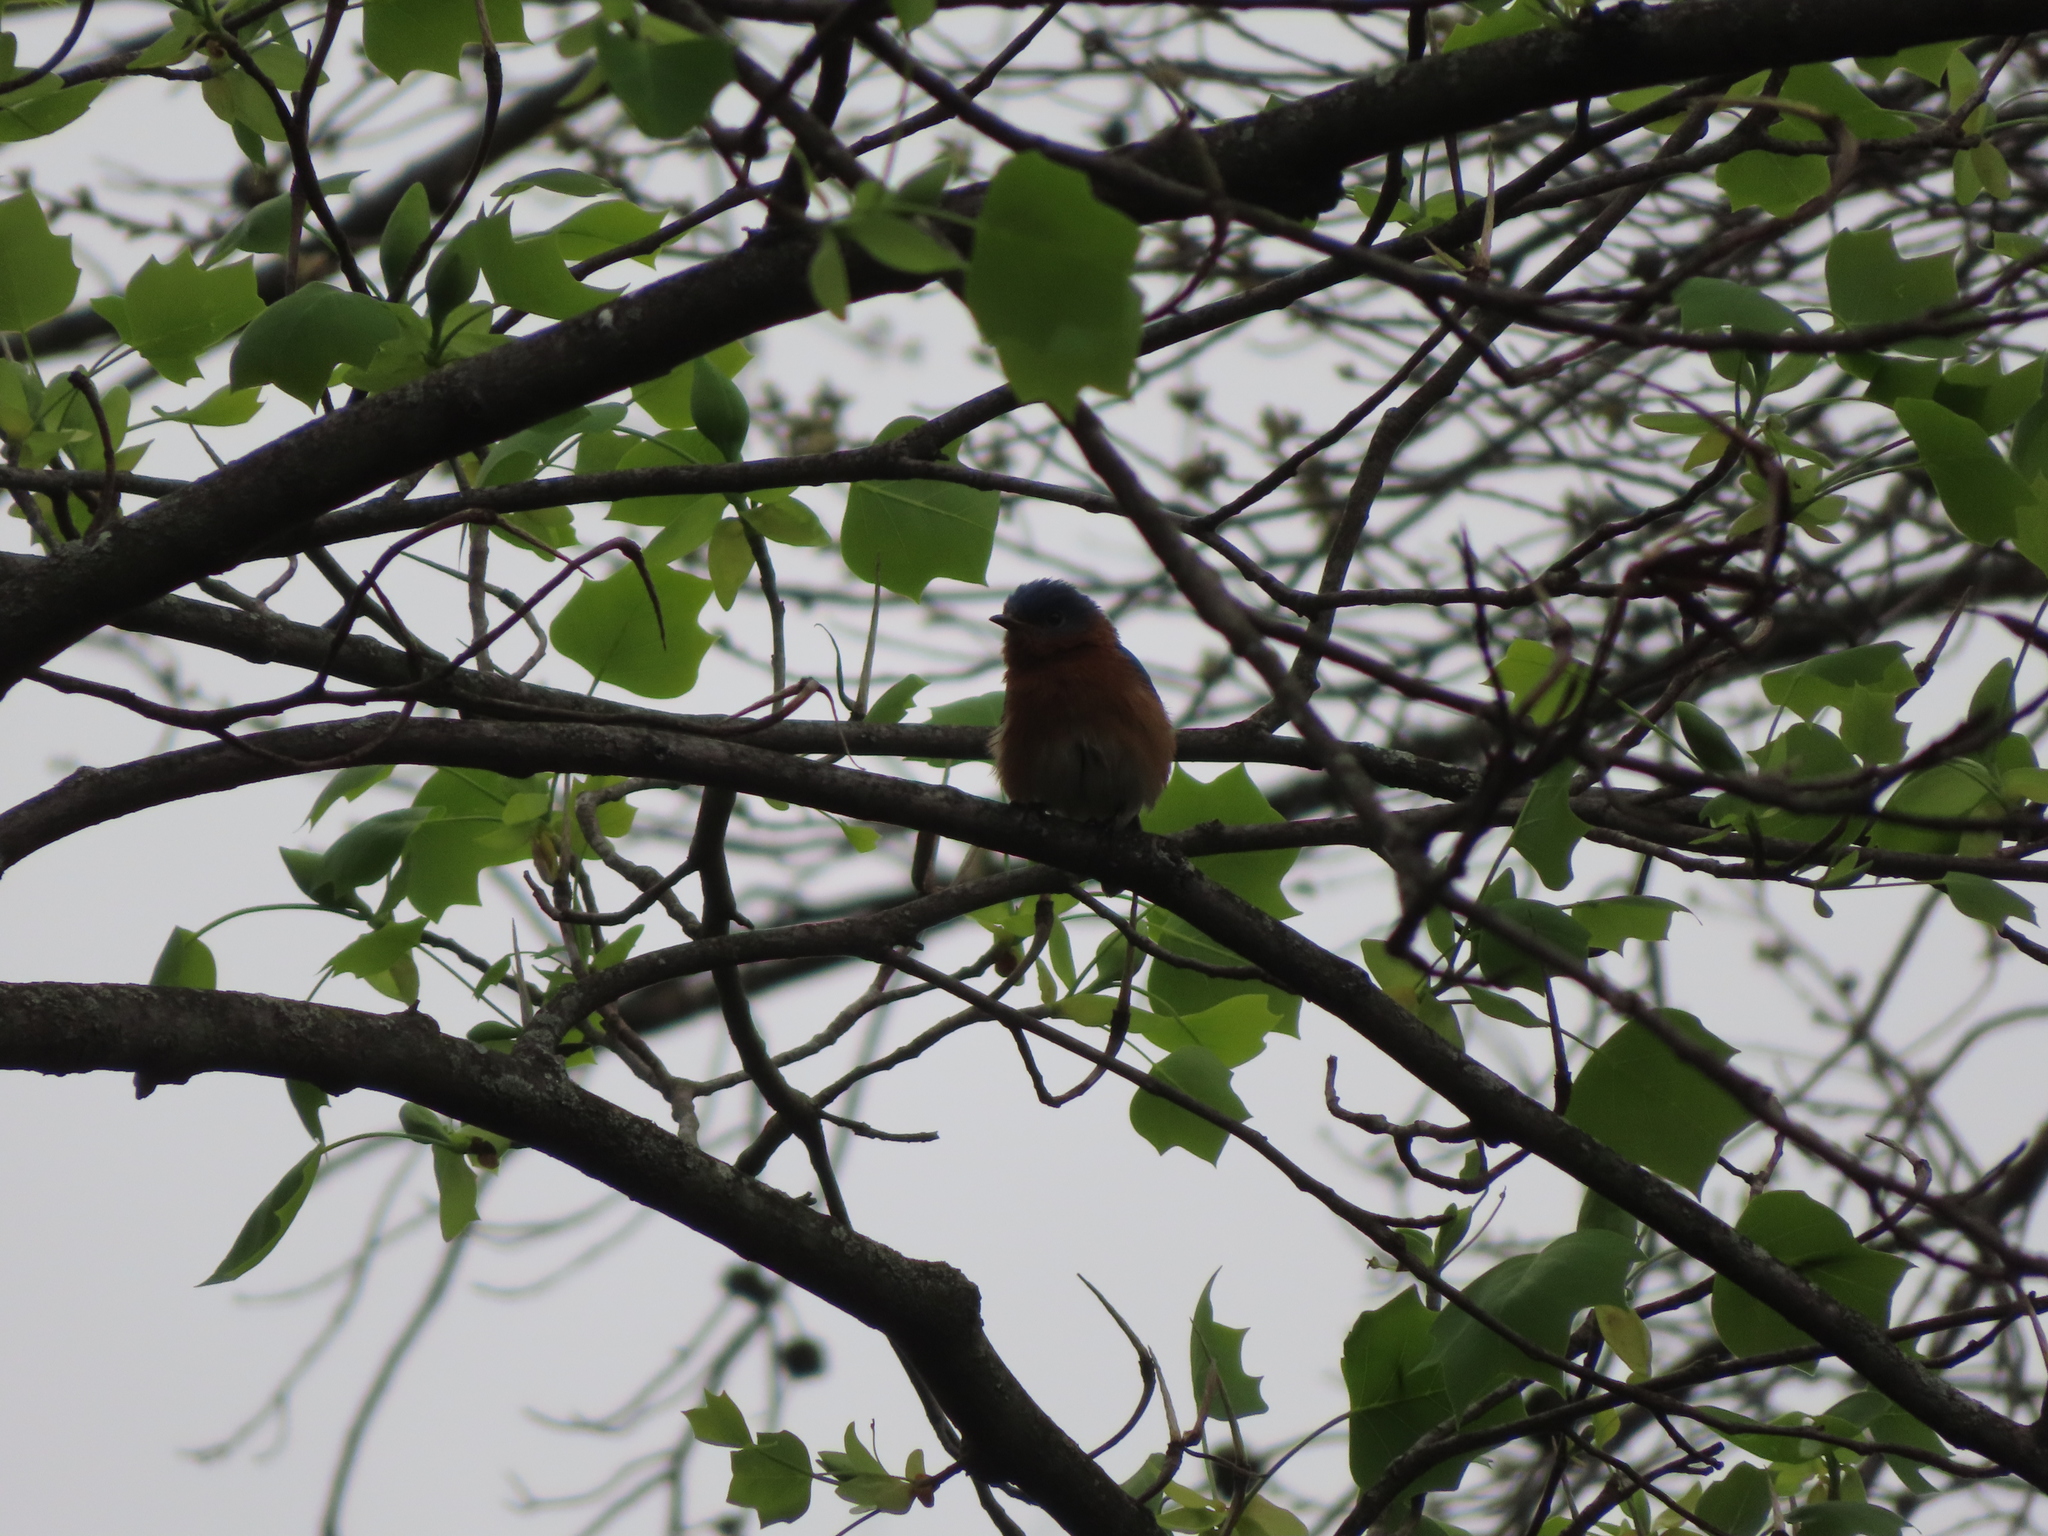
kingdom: Animalia
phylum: Chordata
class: Aves
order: Passeriformes
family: Turdidae
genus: Sialia
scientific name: Sialia sialis
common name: Eastern bluebird
